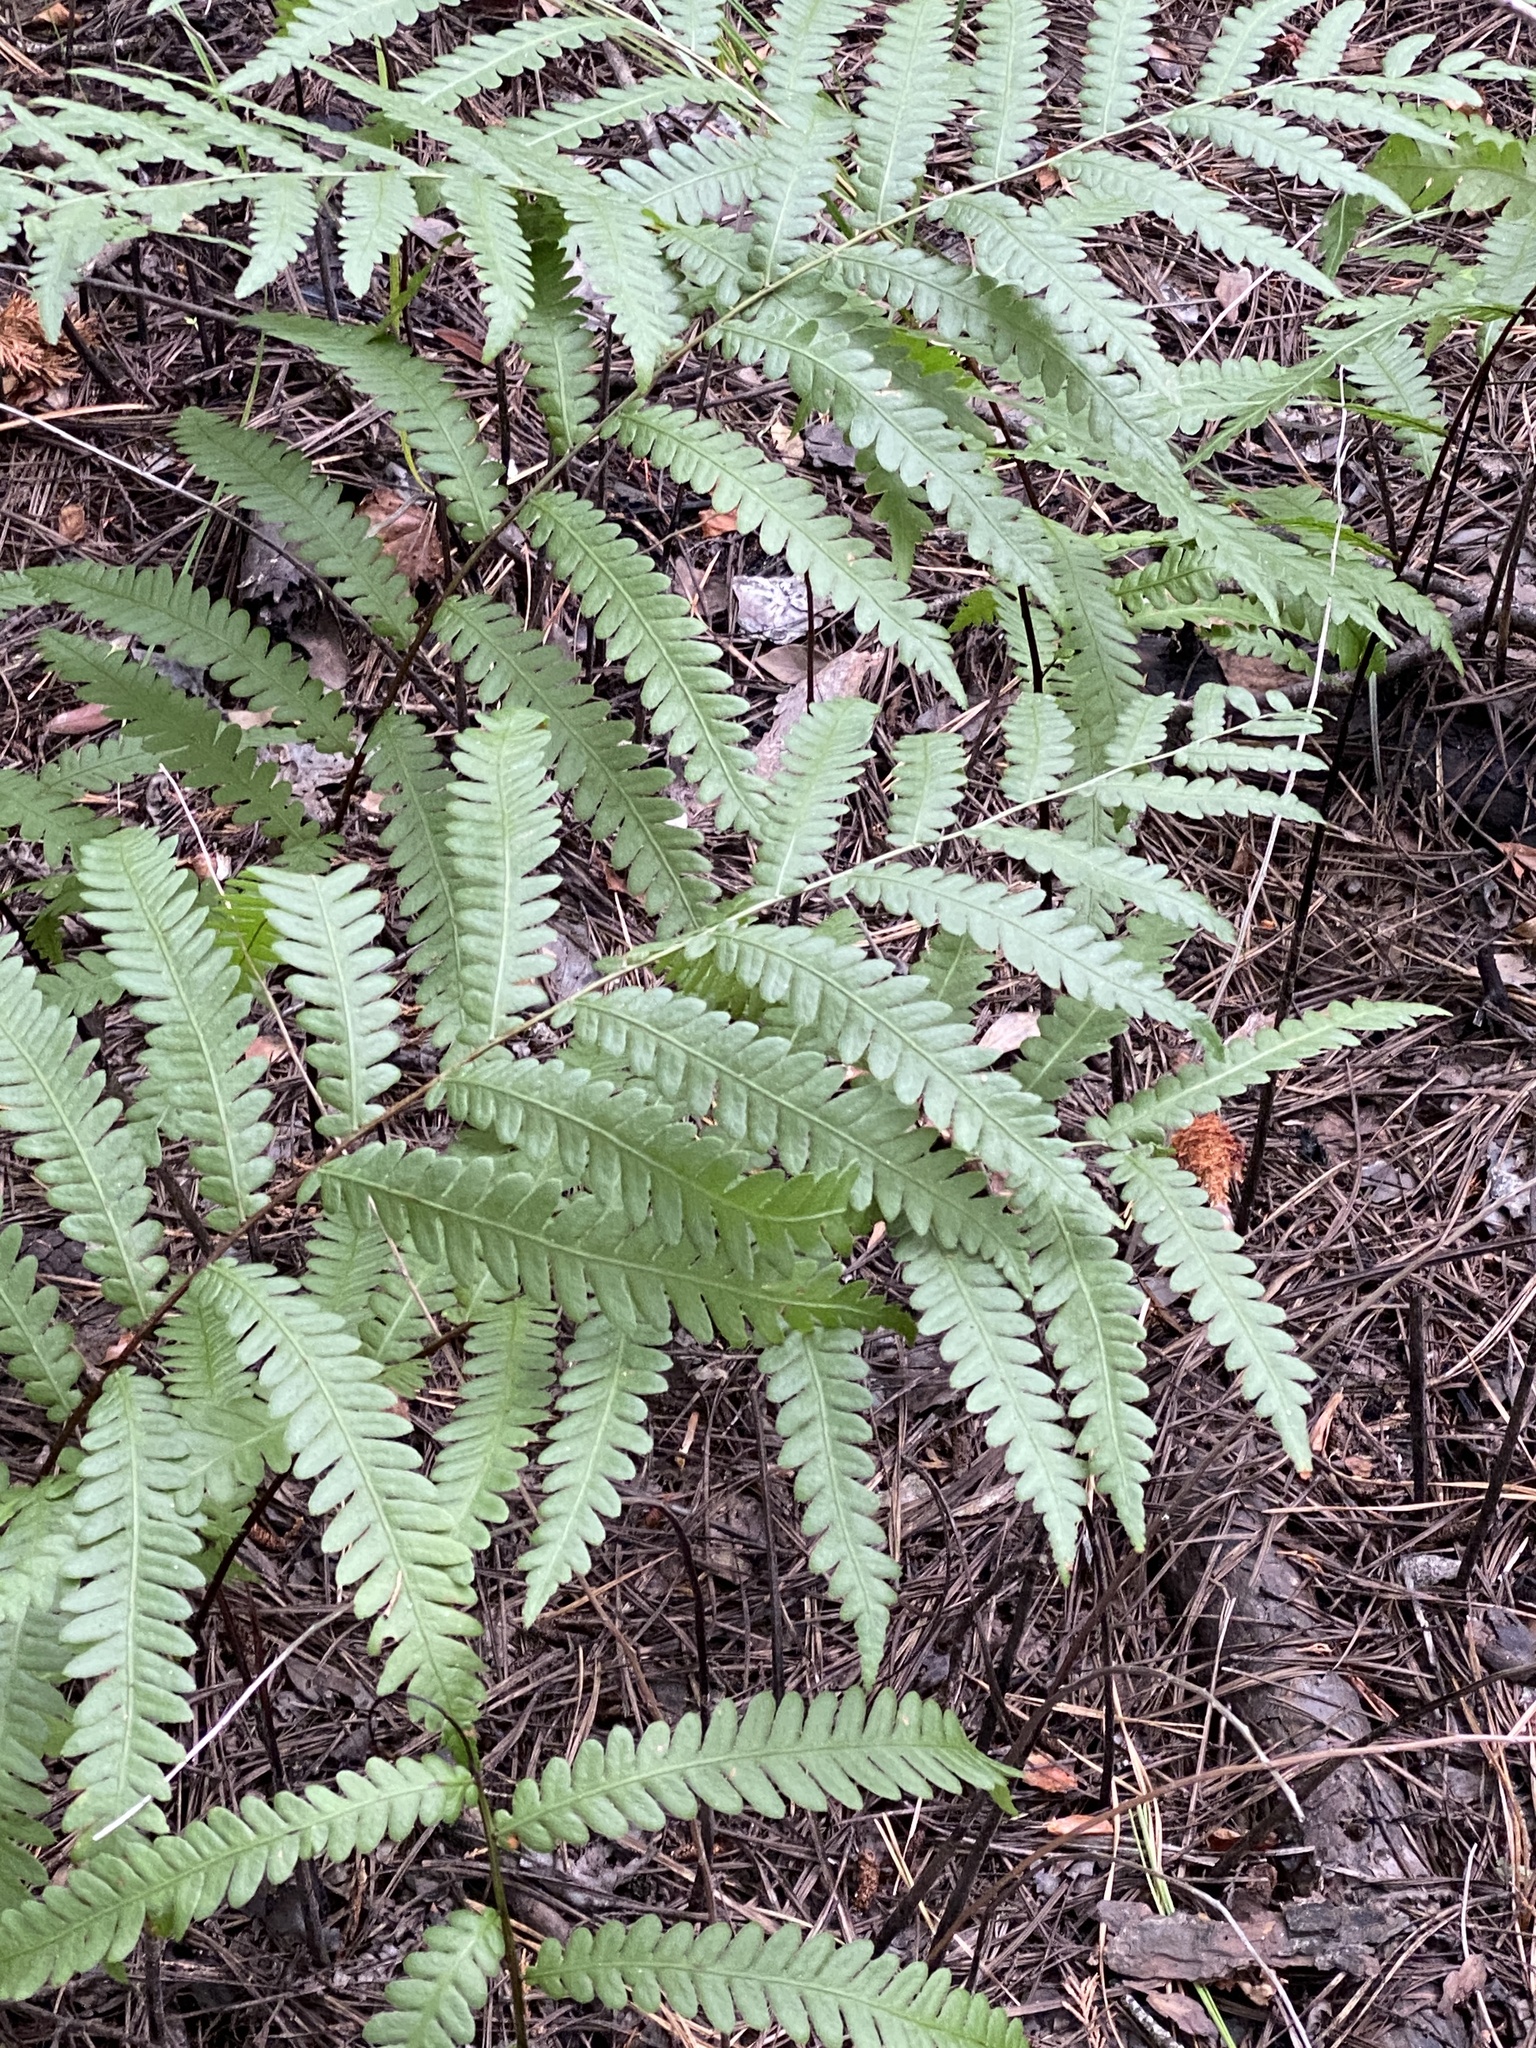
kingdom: Plantae
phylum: Tracheophyta
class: Polypodiopsida
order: Polypodiales
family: Blechnaceae
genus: Anchistea
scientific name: Anchistea virginica
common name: Virginia chain fern
